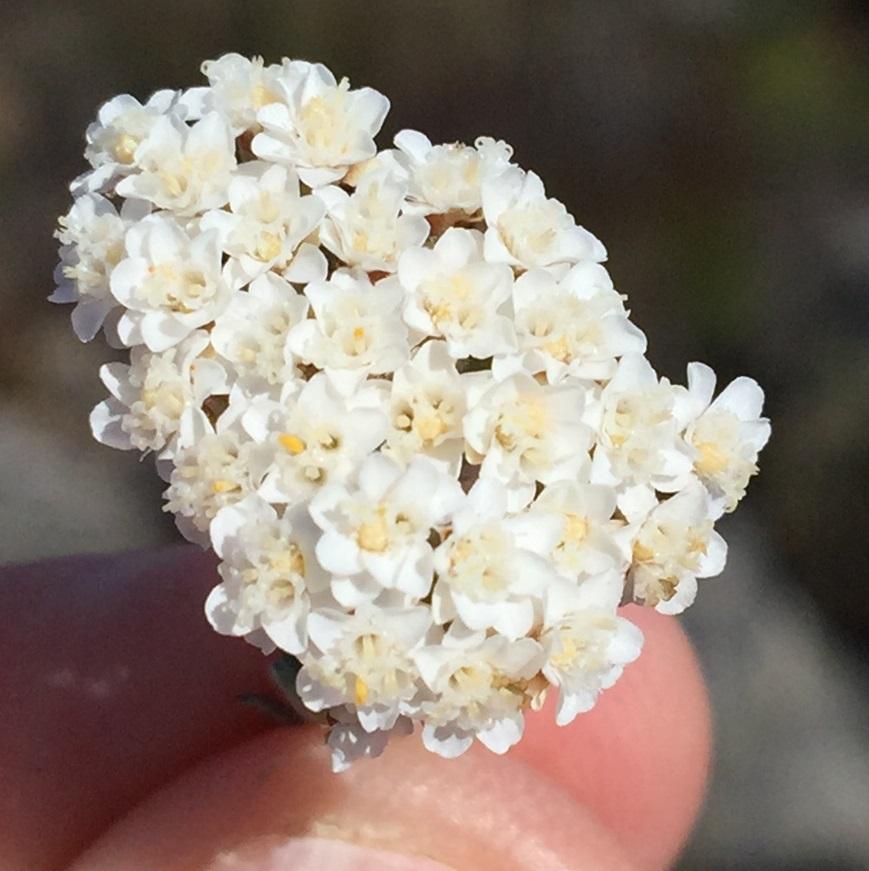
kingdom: Plantae
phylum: Tracheophyta
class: Magnoliopsida
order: Asterales
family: Asteraceae
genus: Anderbergia
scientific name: Anderbergia rooibergensis
